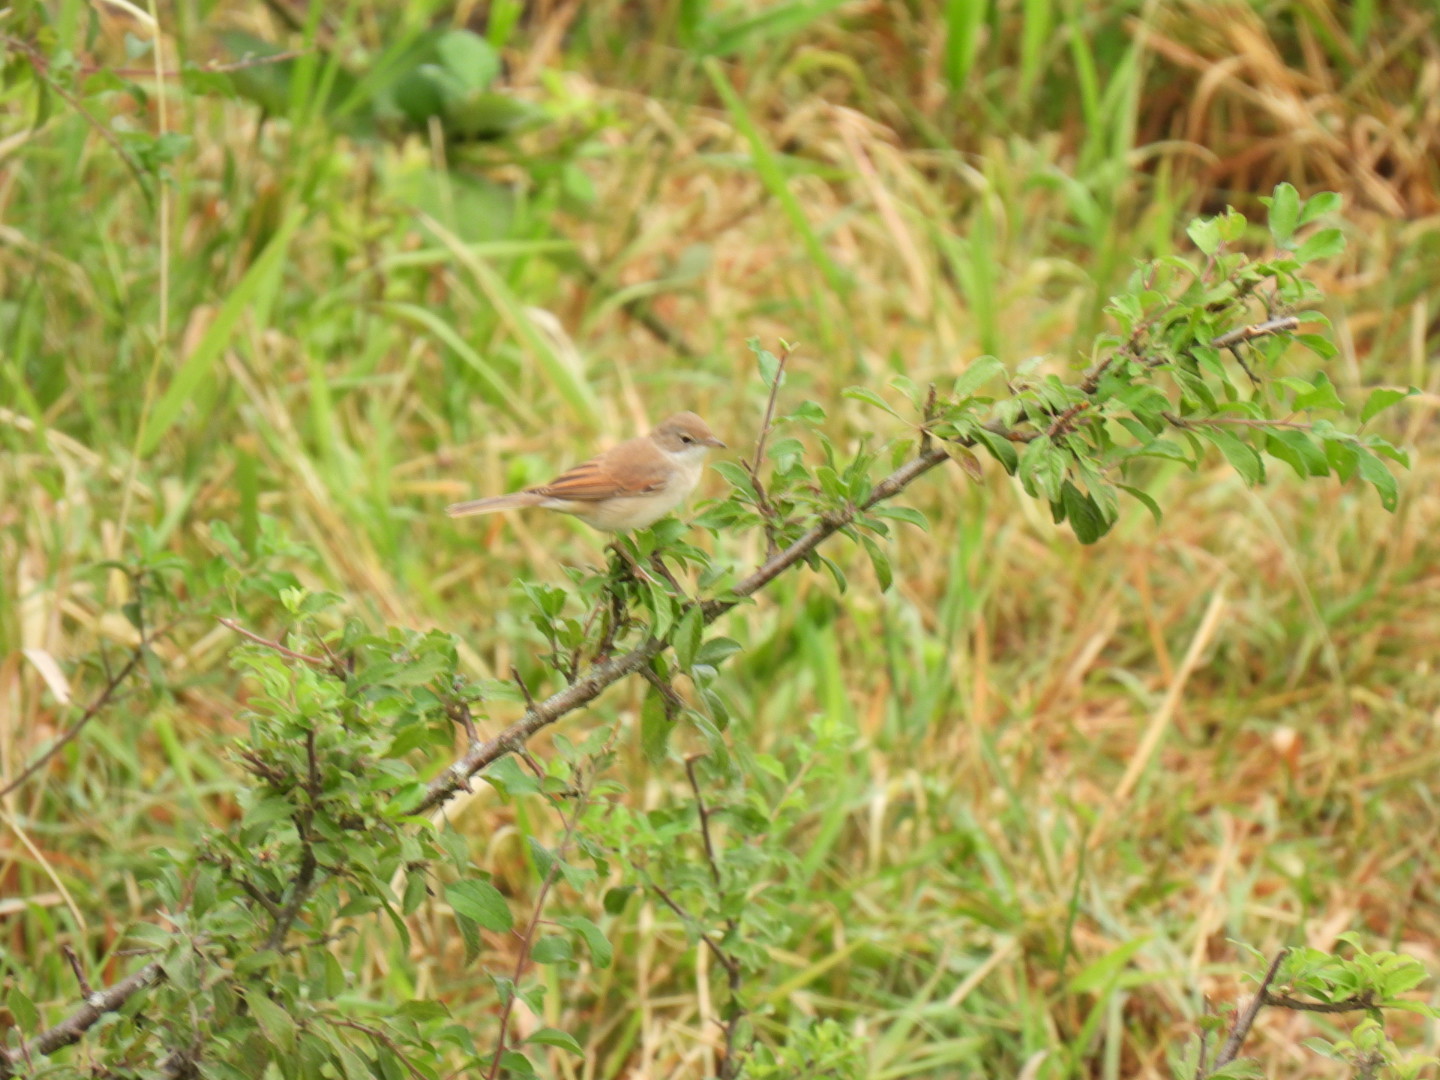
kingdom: Animalia
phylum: Chordata
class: Aves
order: Passeriformes
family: Sylviidae
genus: Sylvia
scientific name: Sylvia communis
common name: Common whitethroat
